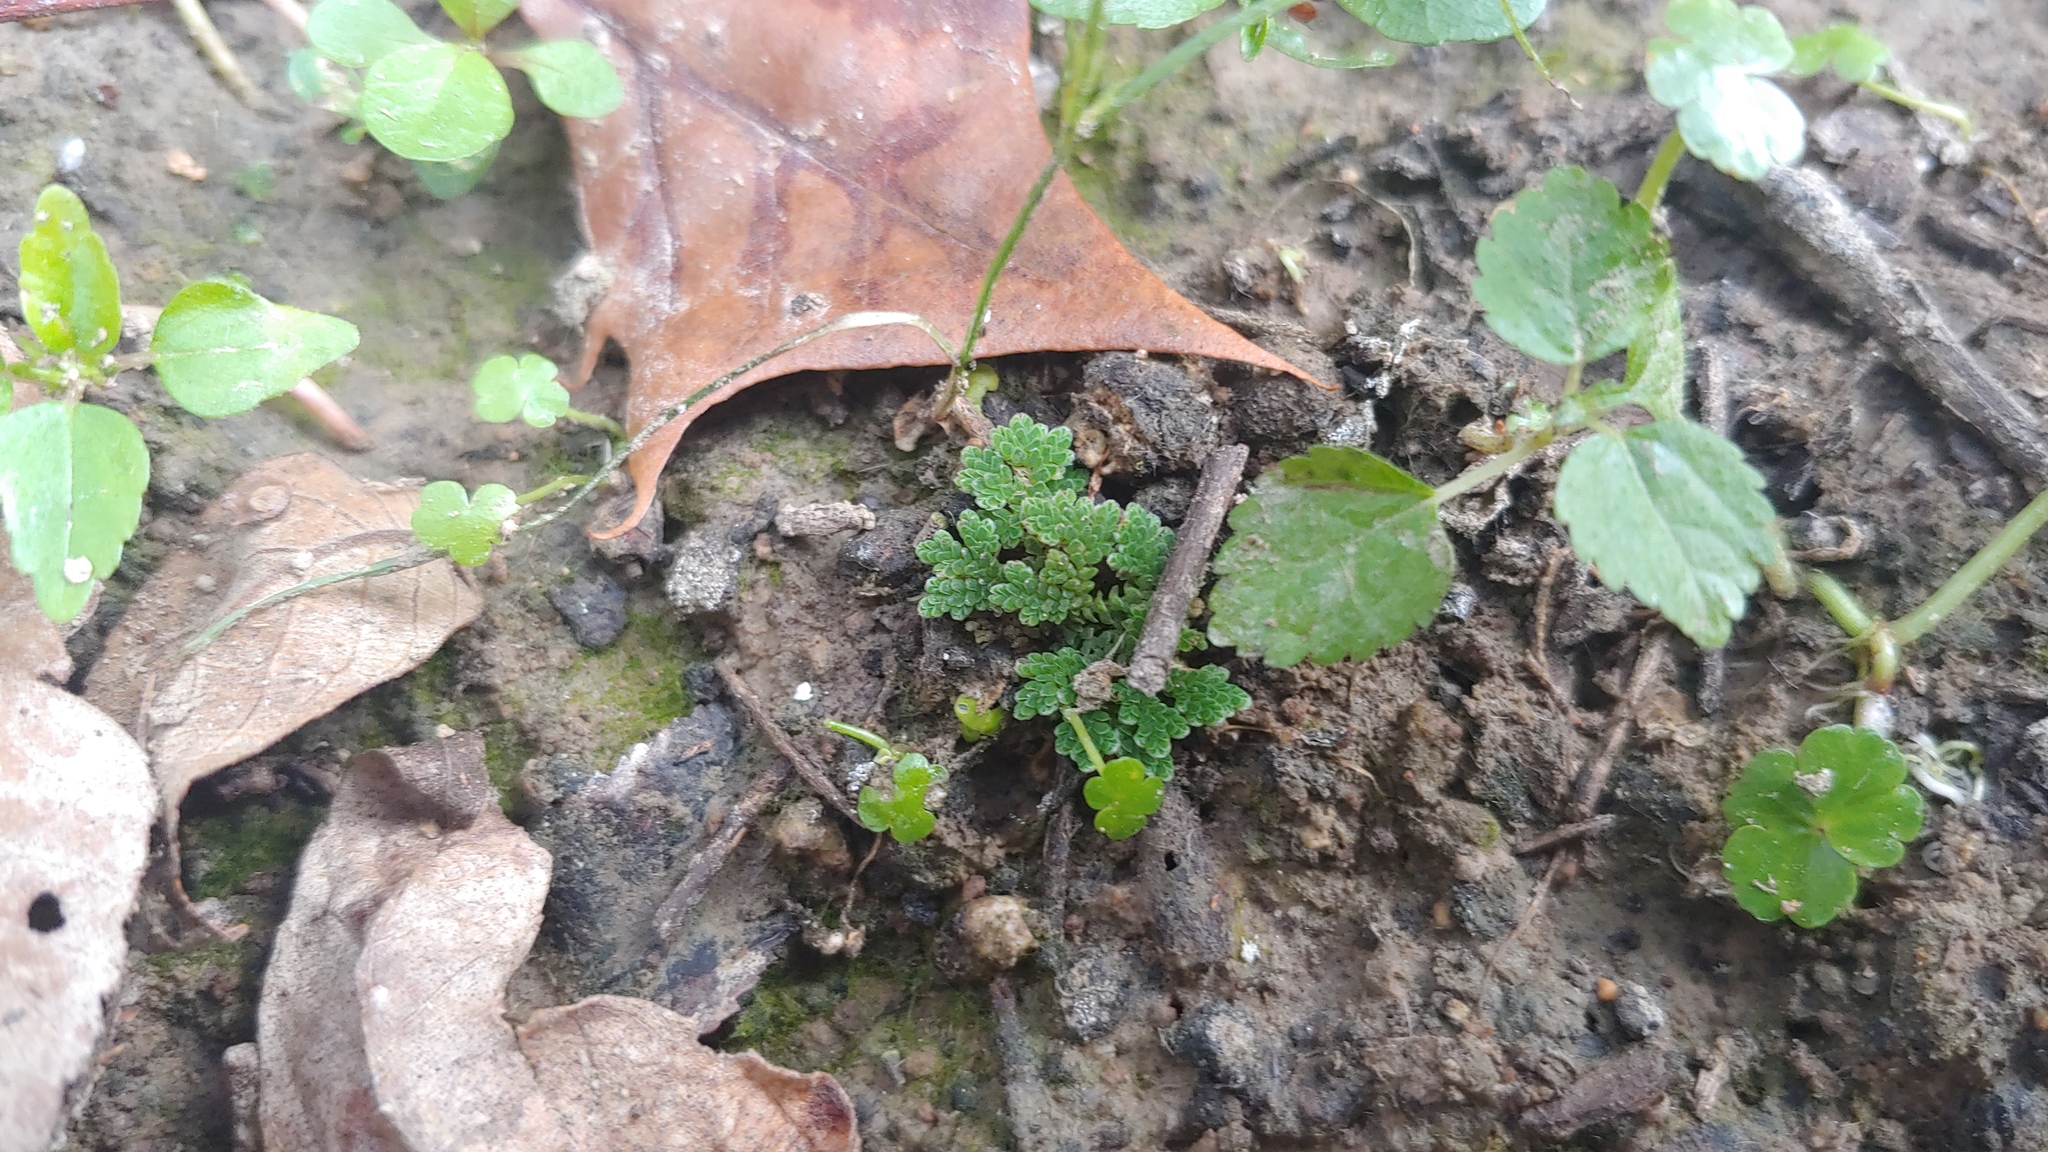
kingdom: Plantae
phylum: Tracheophyta
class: Polypodiopsida
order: Salviniales
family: Salviniaceae
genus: Azolla
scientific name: Azolla cristata
